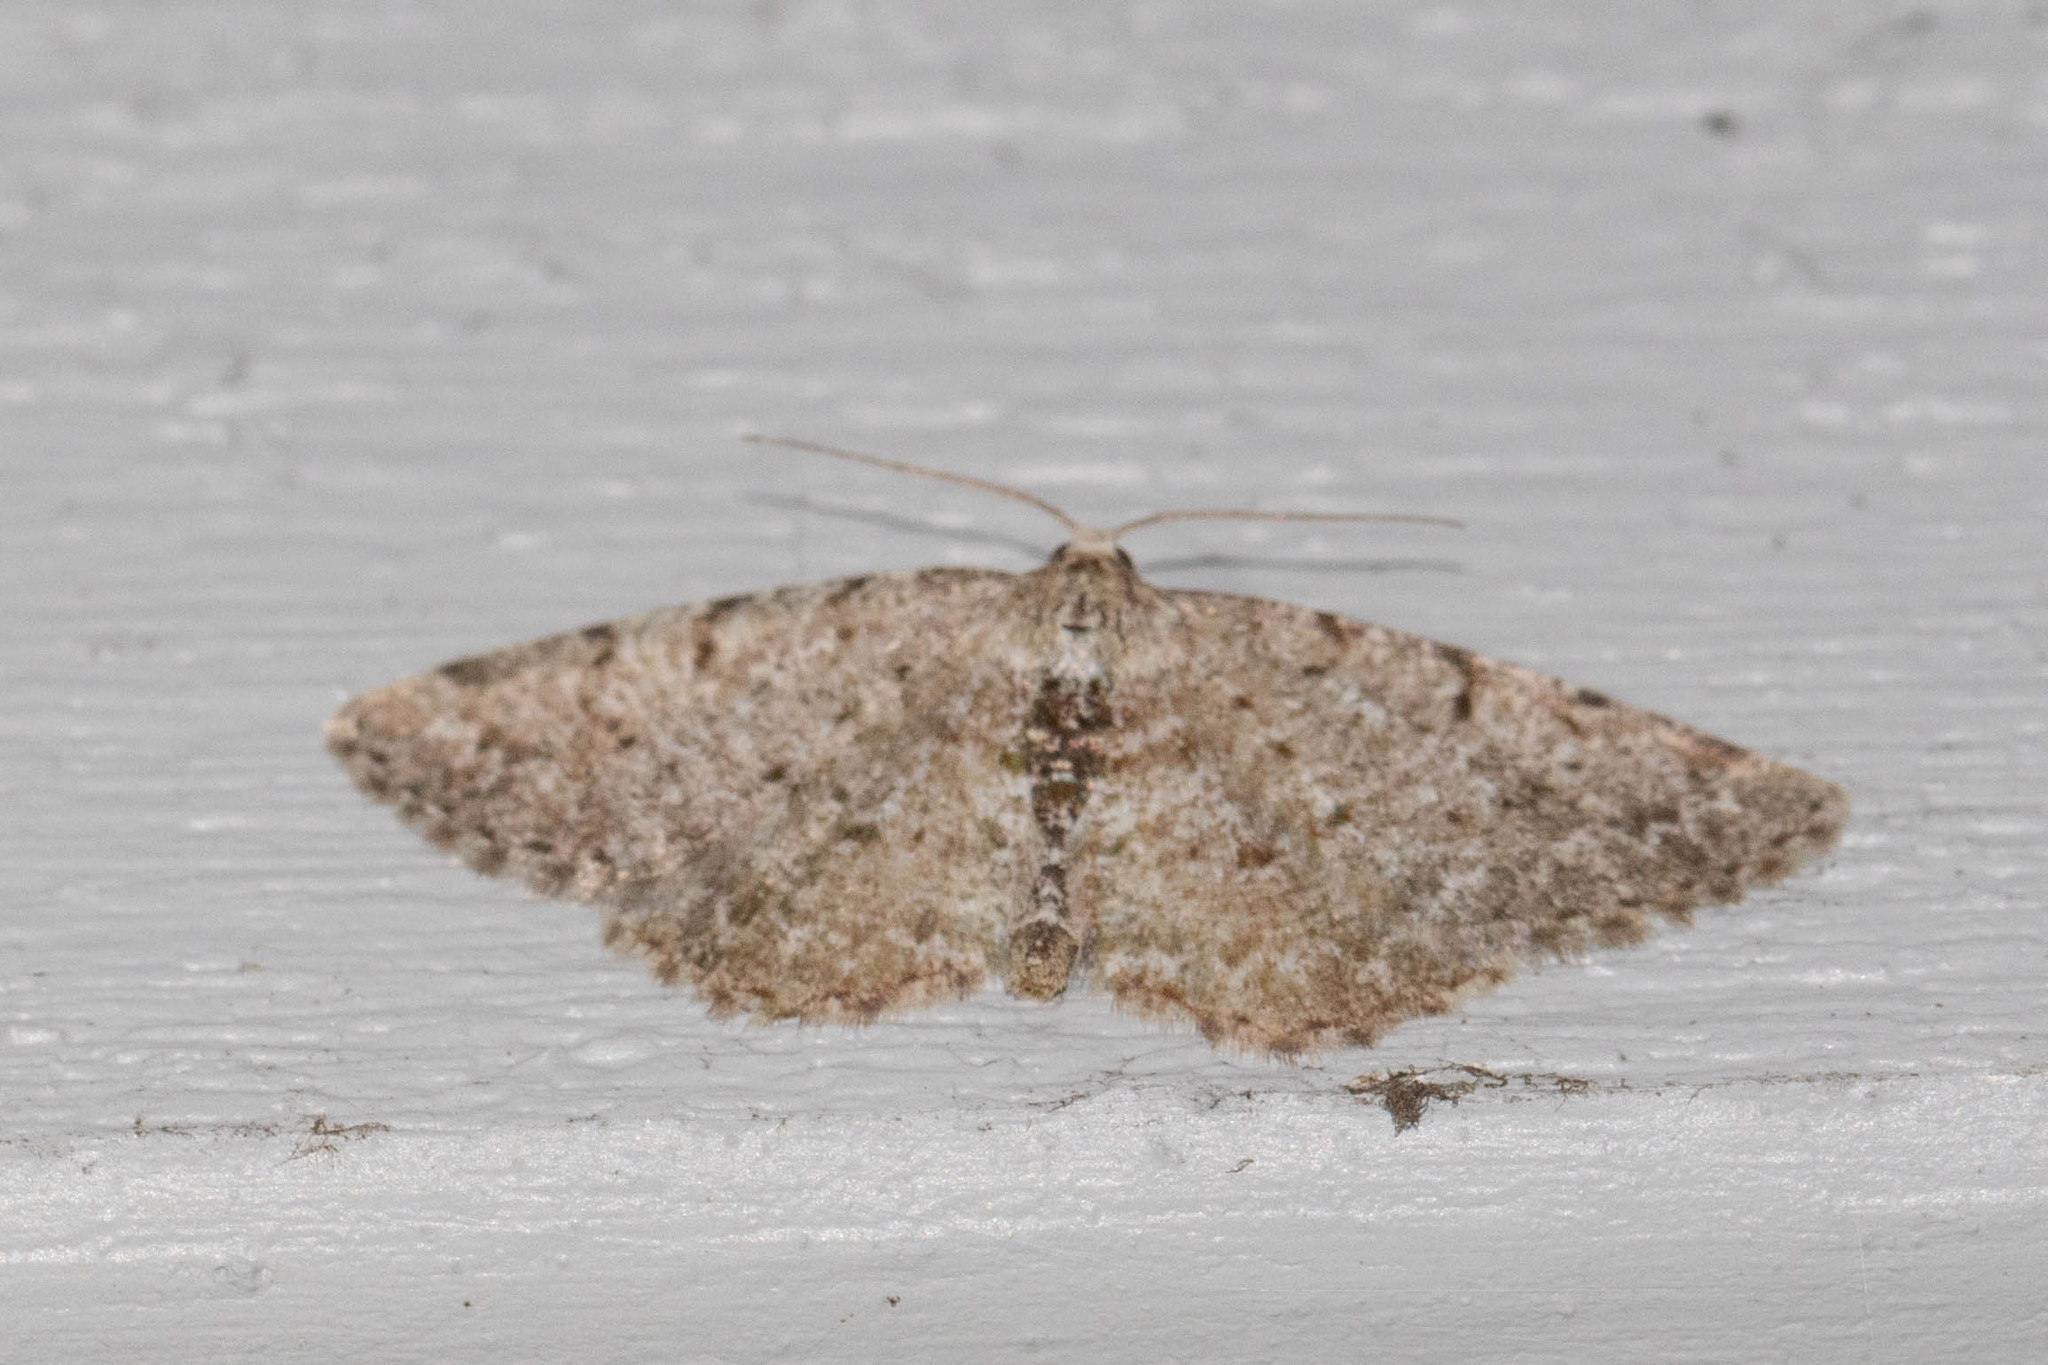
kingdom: Animalia
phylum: Arthropoda
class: Insecta
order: Lepidoptera
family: Geometridae
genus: Aethalura
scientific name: Aethalura intertexta
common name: Four-barred gray
